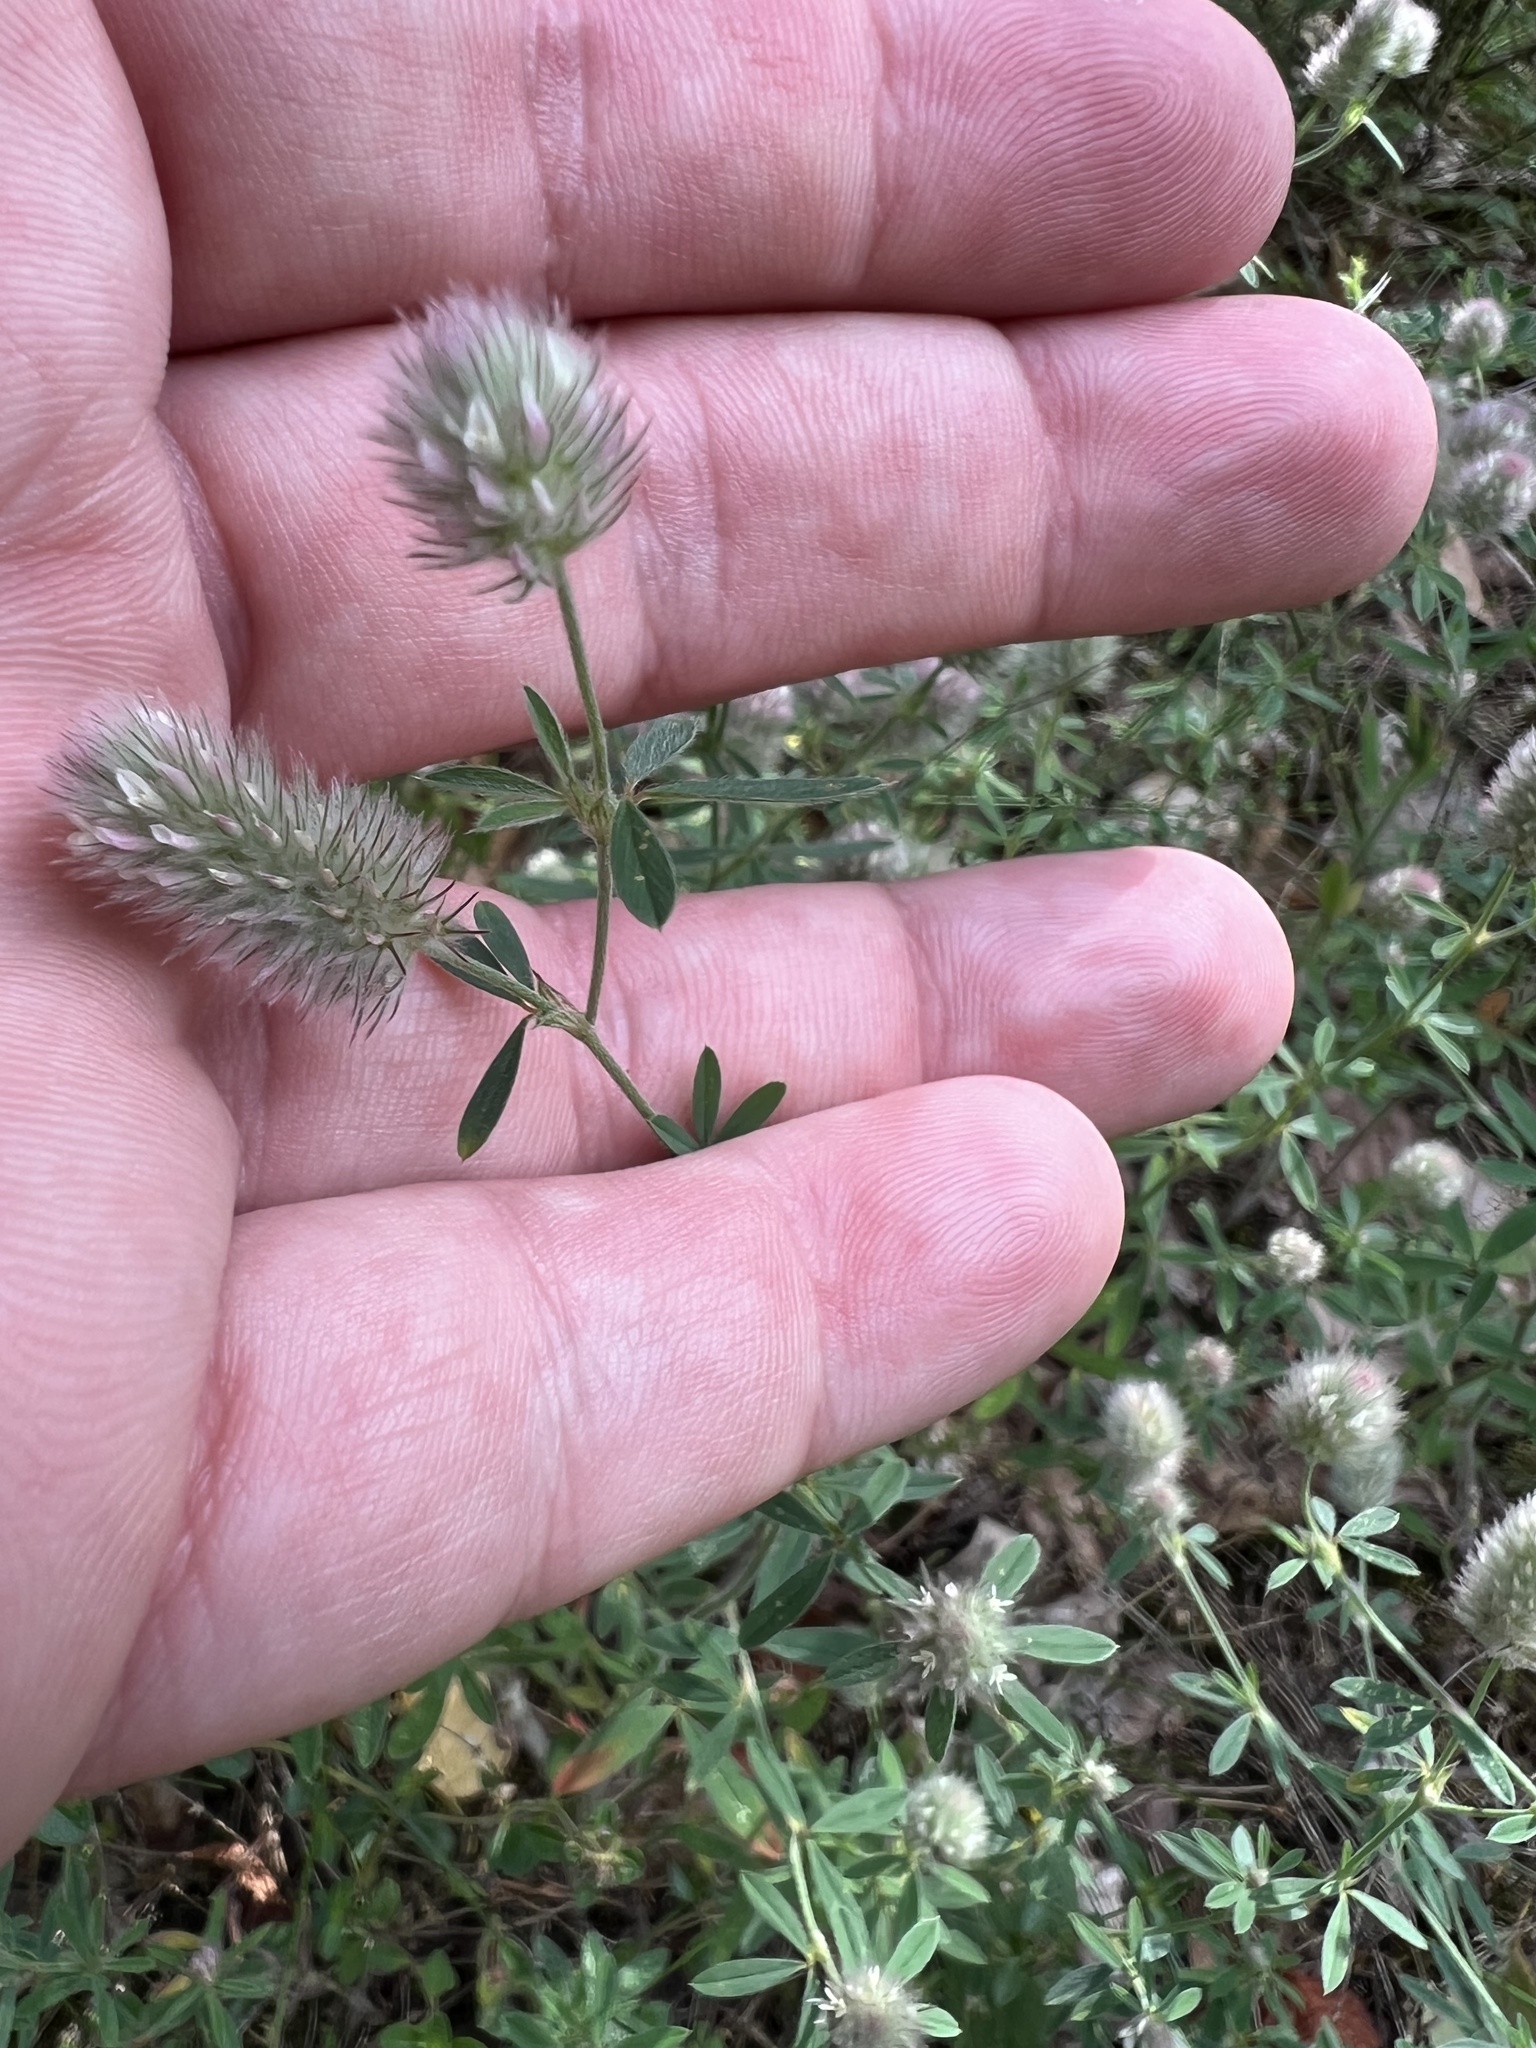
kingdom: Plantae
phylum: Tracheophyta
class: Magnoliopsida
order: Fabales
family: Fabaceae
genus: Trifolium
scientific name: Trifolium arvense
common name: Hare's-foot clover
